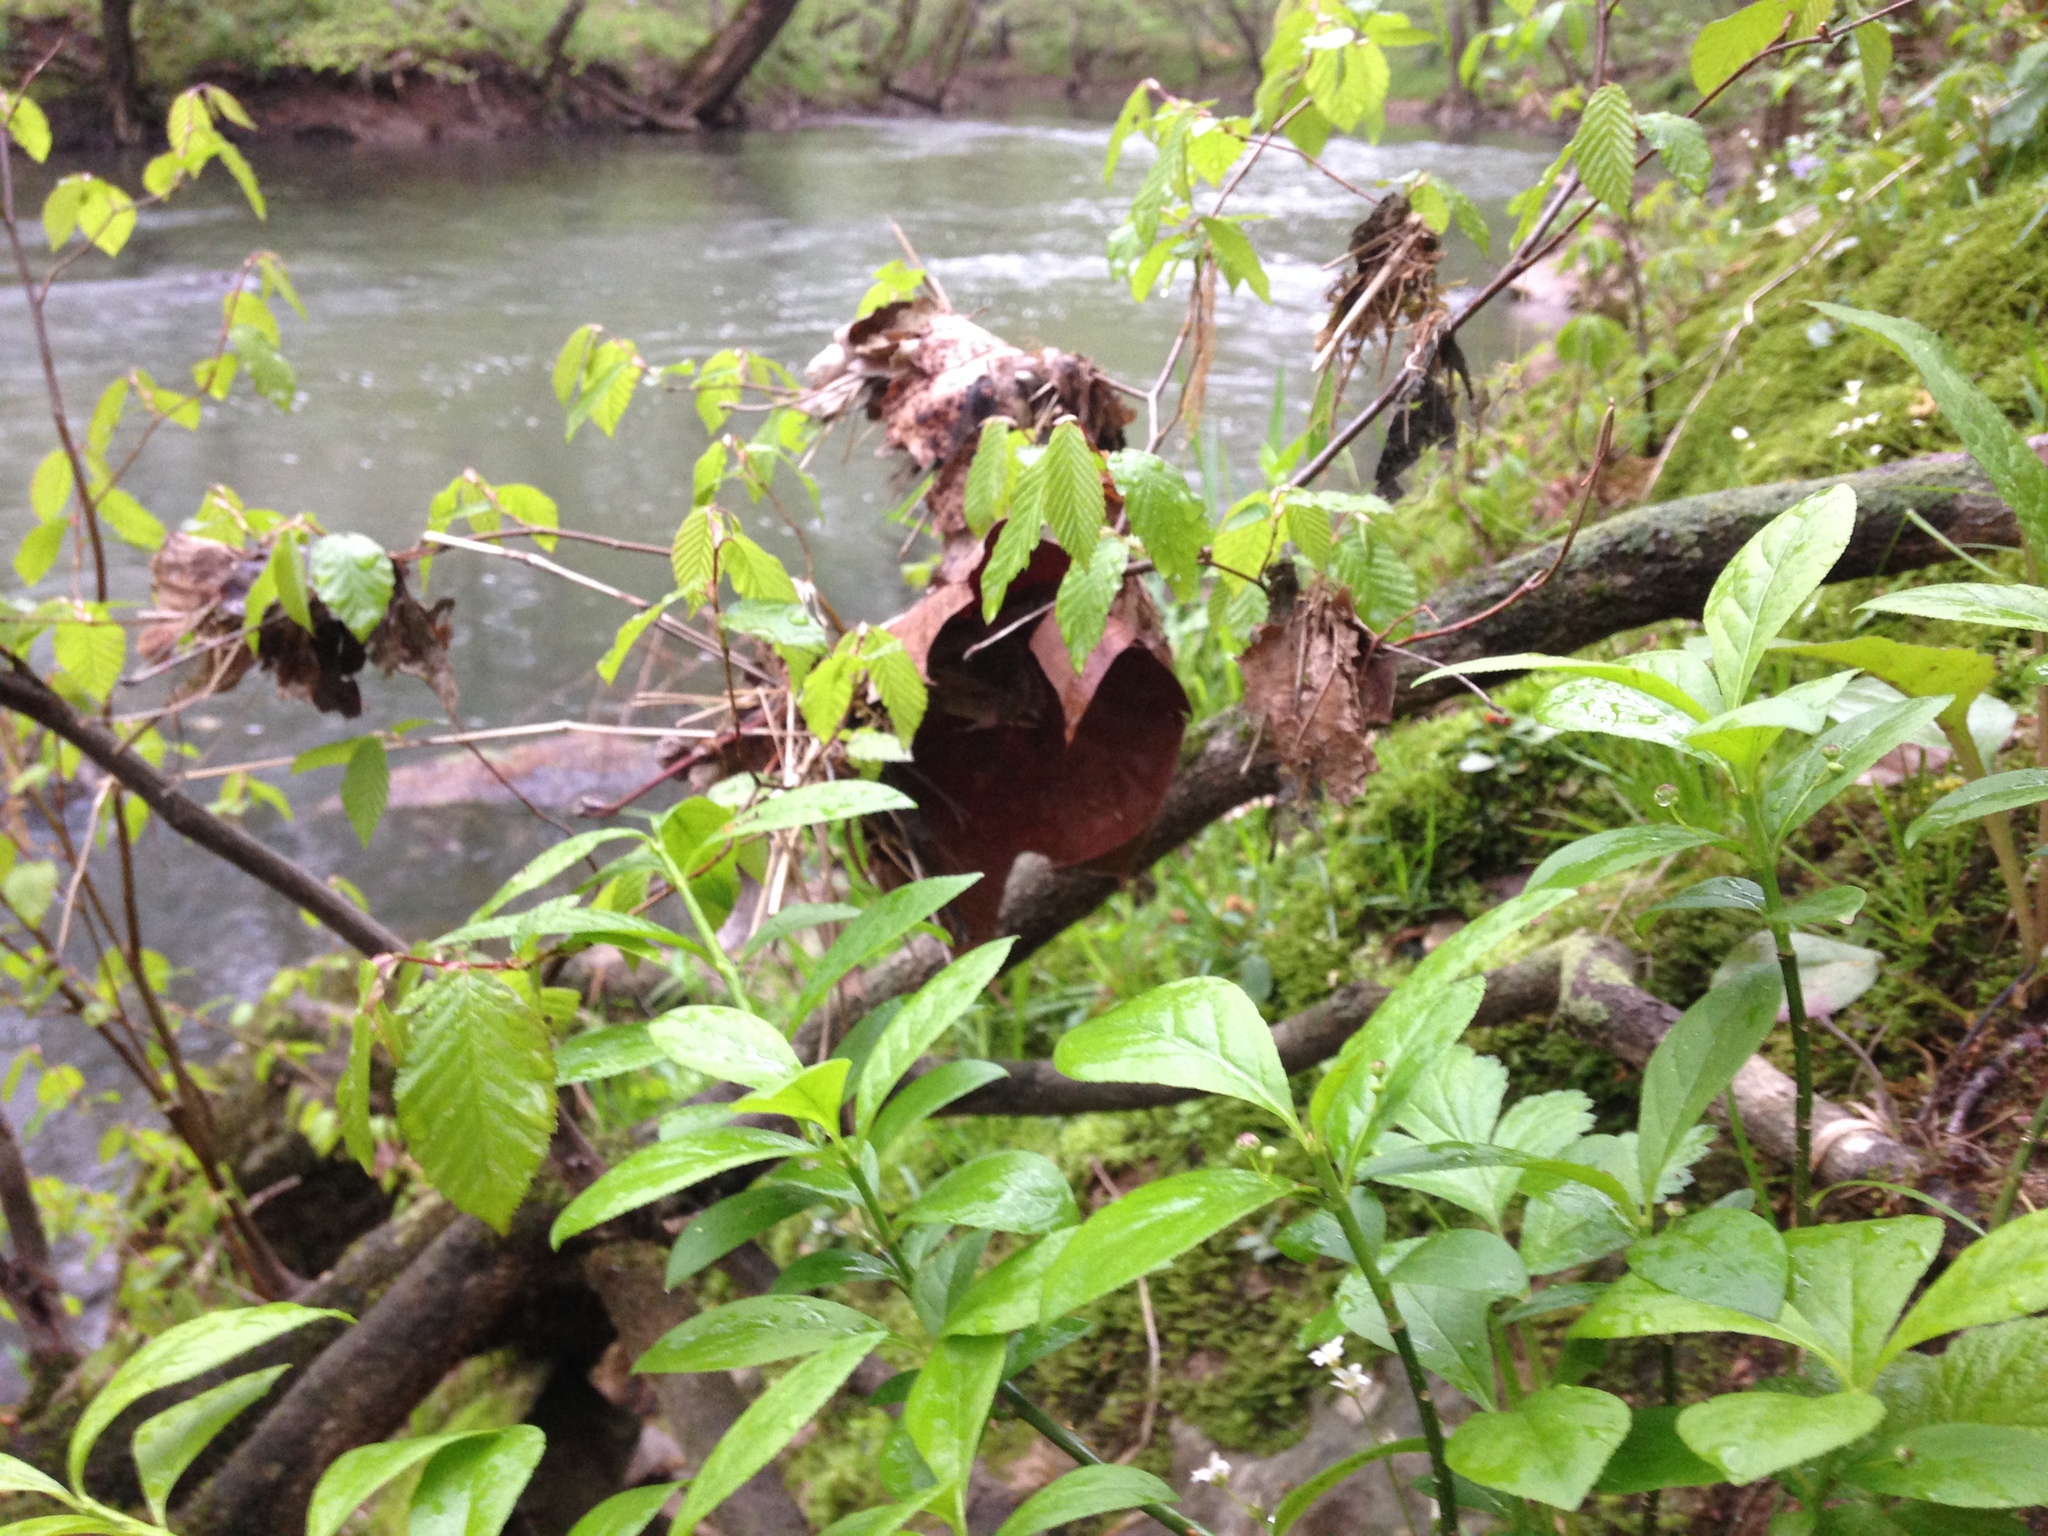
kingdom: Plantae
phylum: Tracheophyta
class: Magnoliopsida
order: Celastrales
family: Celastraceae
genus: Euonymus
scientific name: Euonymus obovatus
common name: Running strawberry-bush
